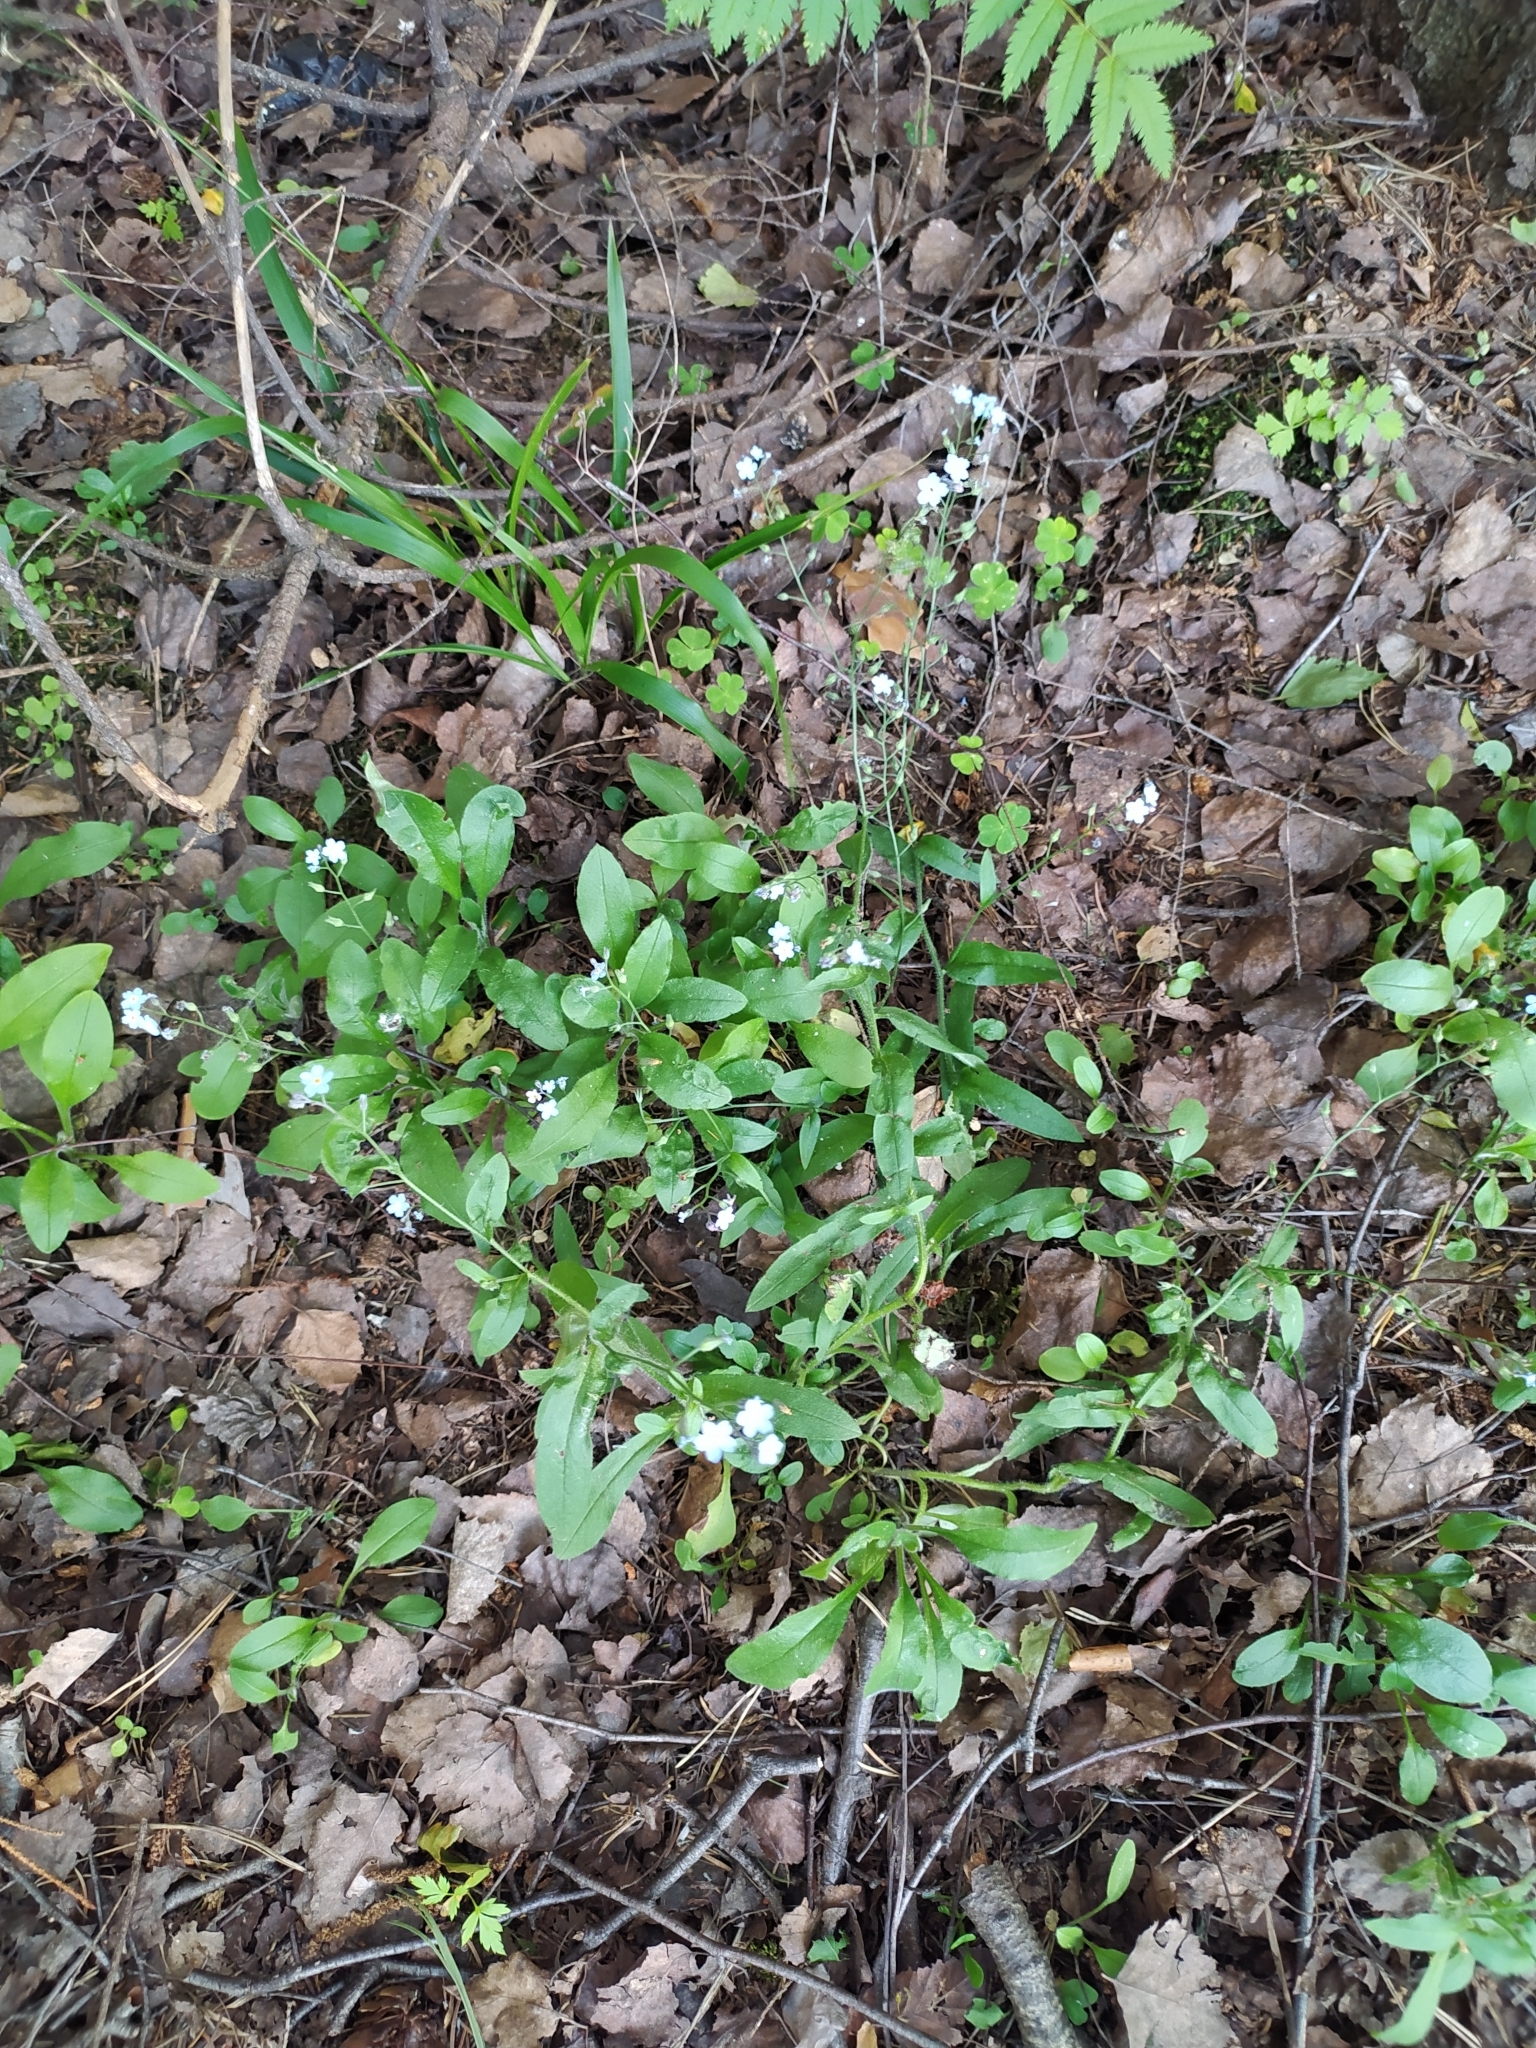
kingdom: Plantae
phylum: Tracheophyta
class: Magnoliopsida
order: Boraginales
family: Boraginaceae
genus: Myosotis
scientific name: Myosotis sylvatica
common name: Wood forget-me-not
